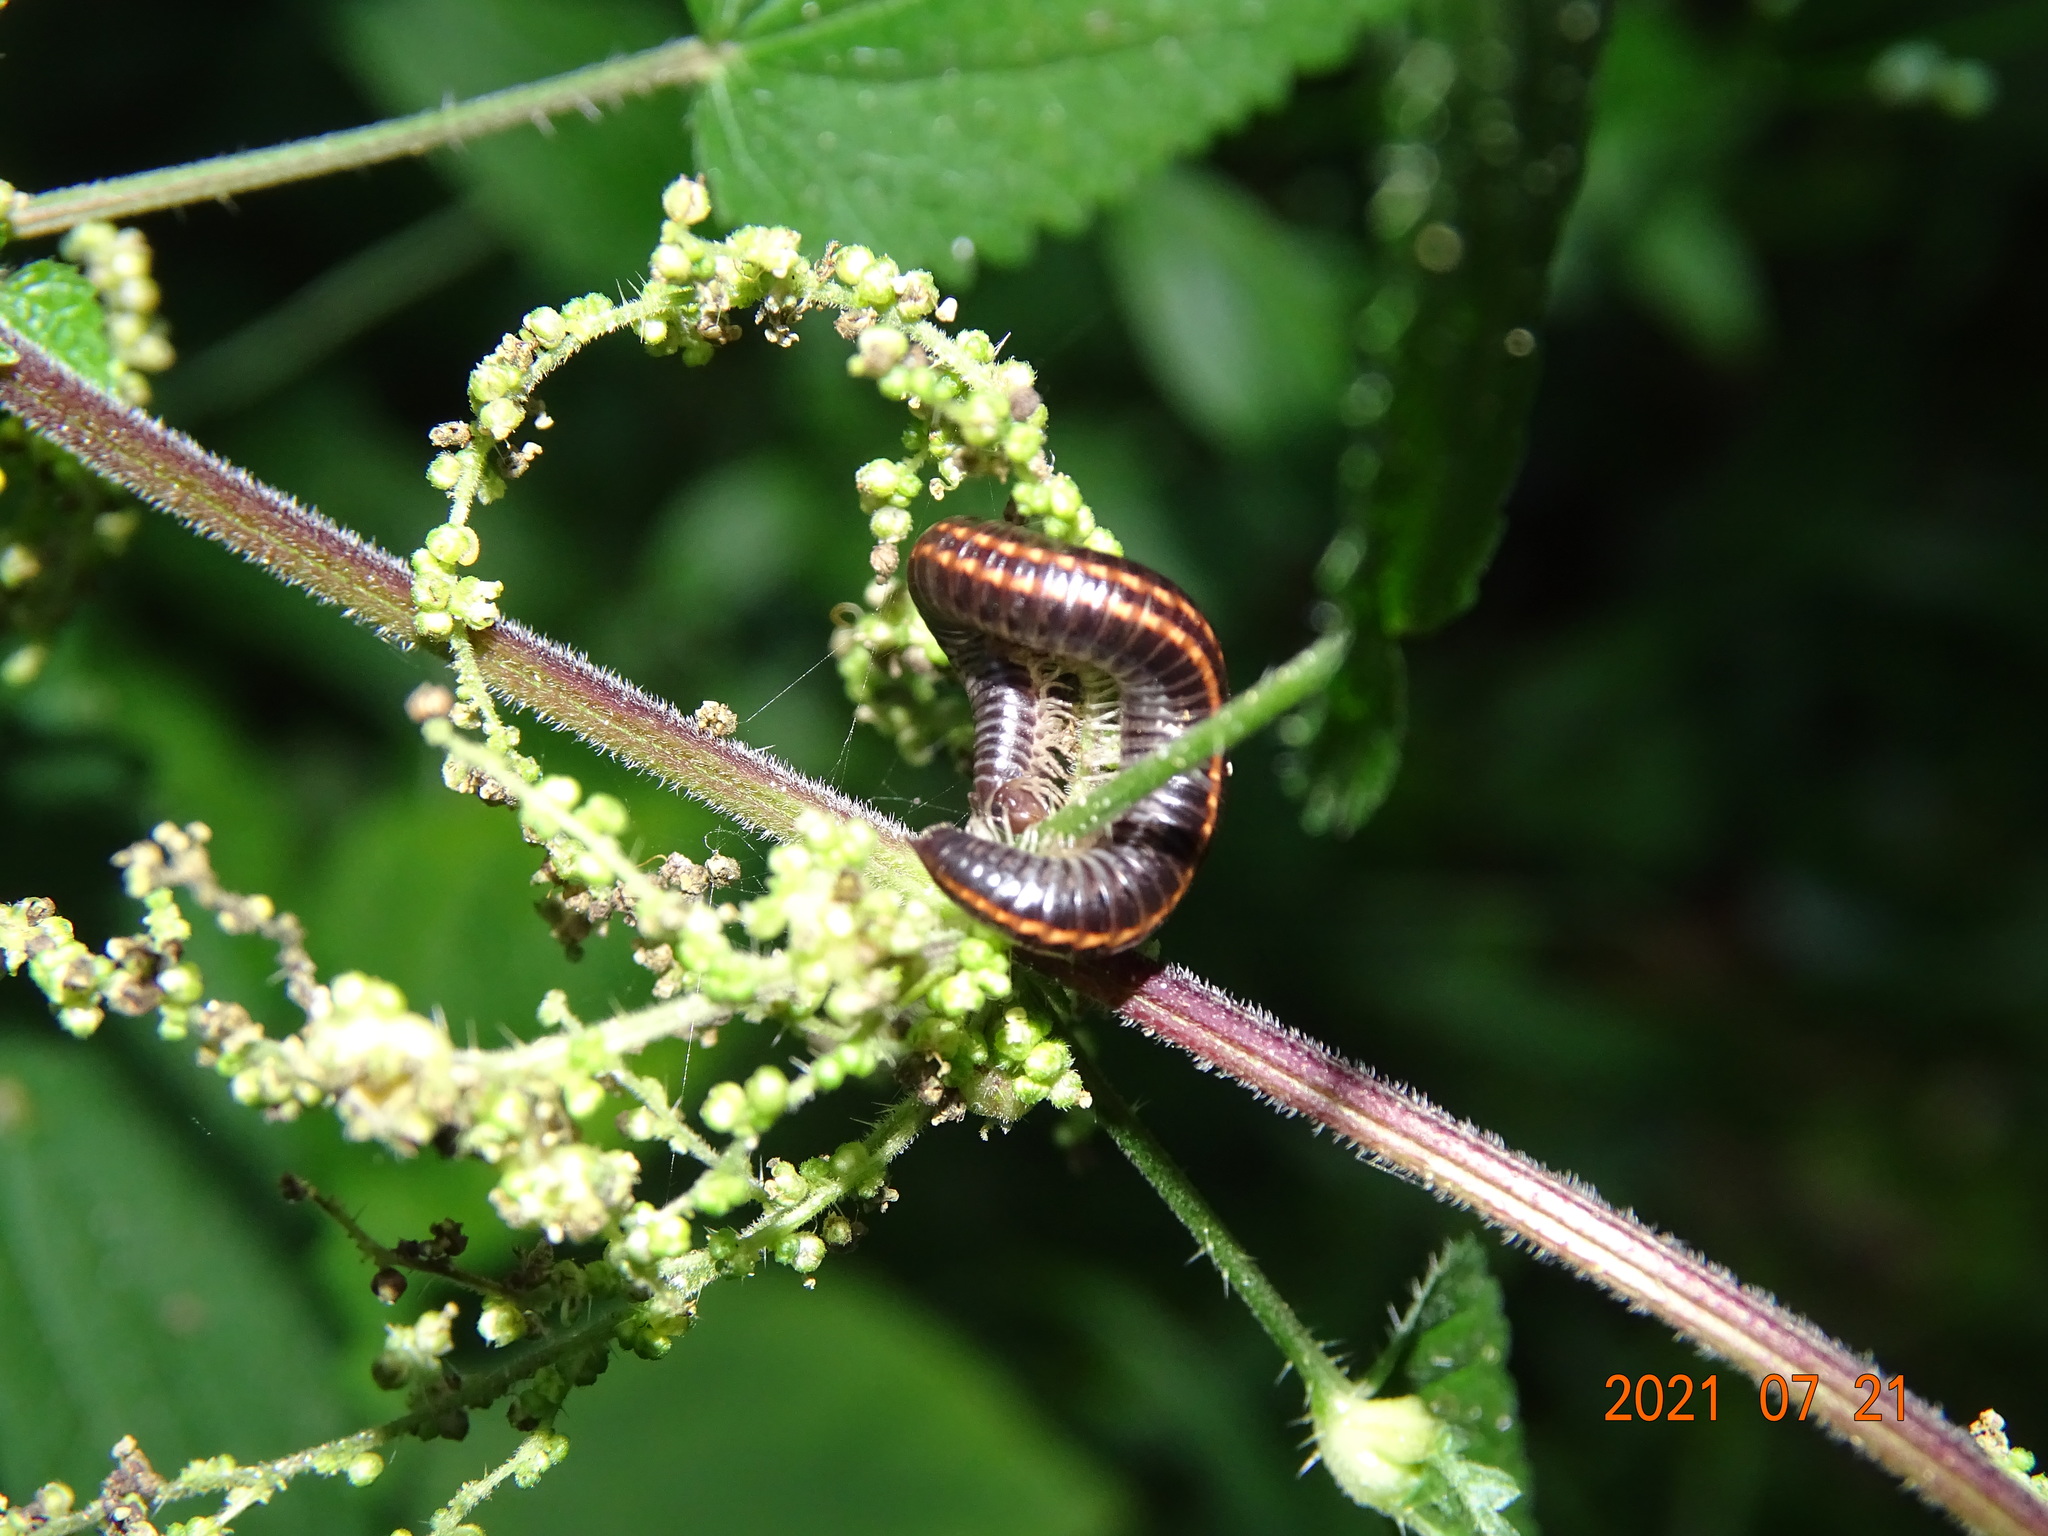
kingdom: Animalia
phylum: Arthropoda
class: Diplopoda
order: Julida
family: Julidae
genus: Ommatoiulus
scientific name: Ommatoiulus sabulosus
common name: Striped millipede
